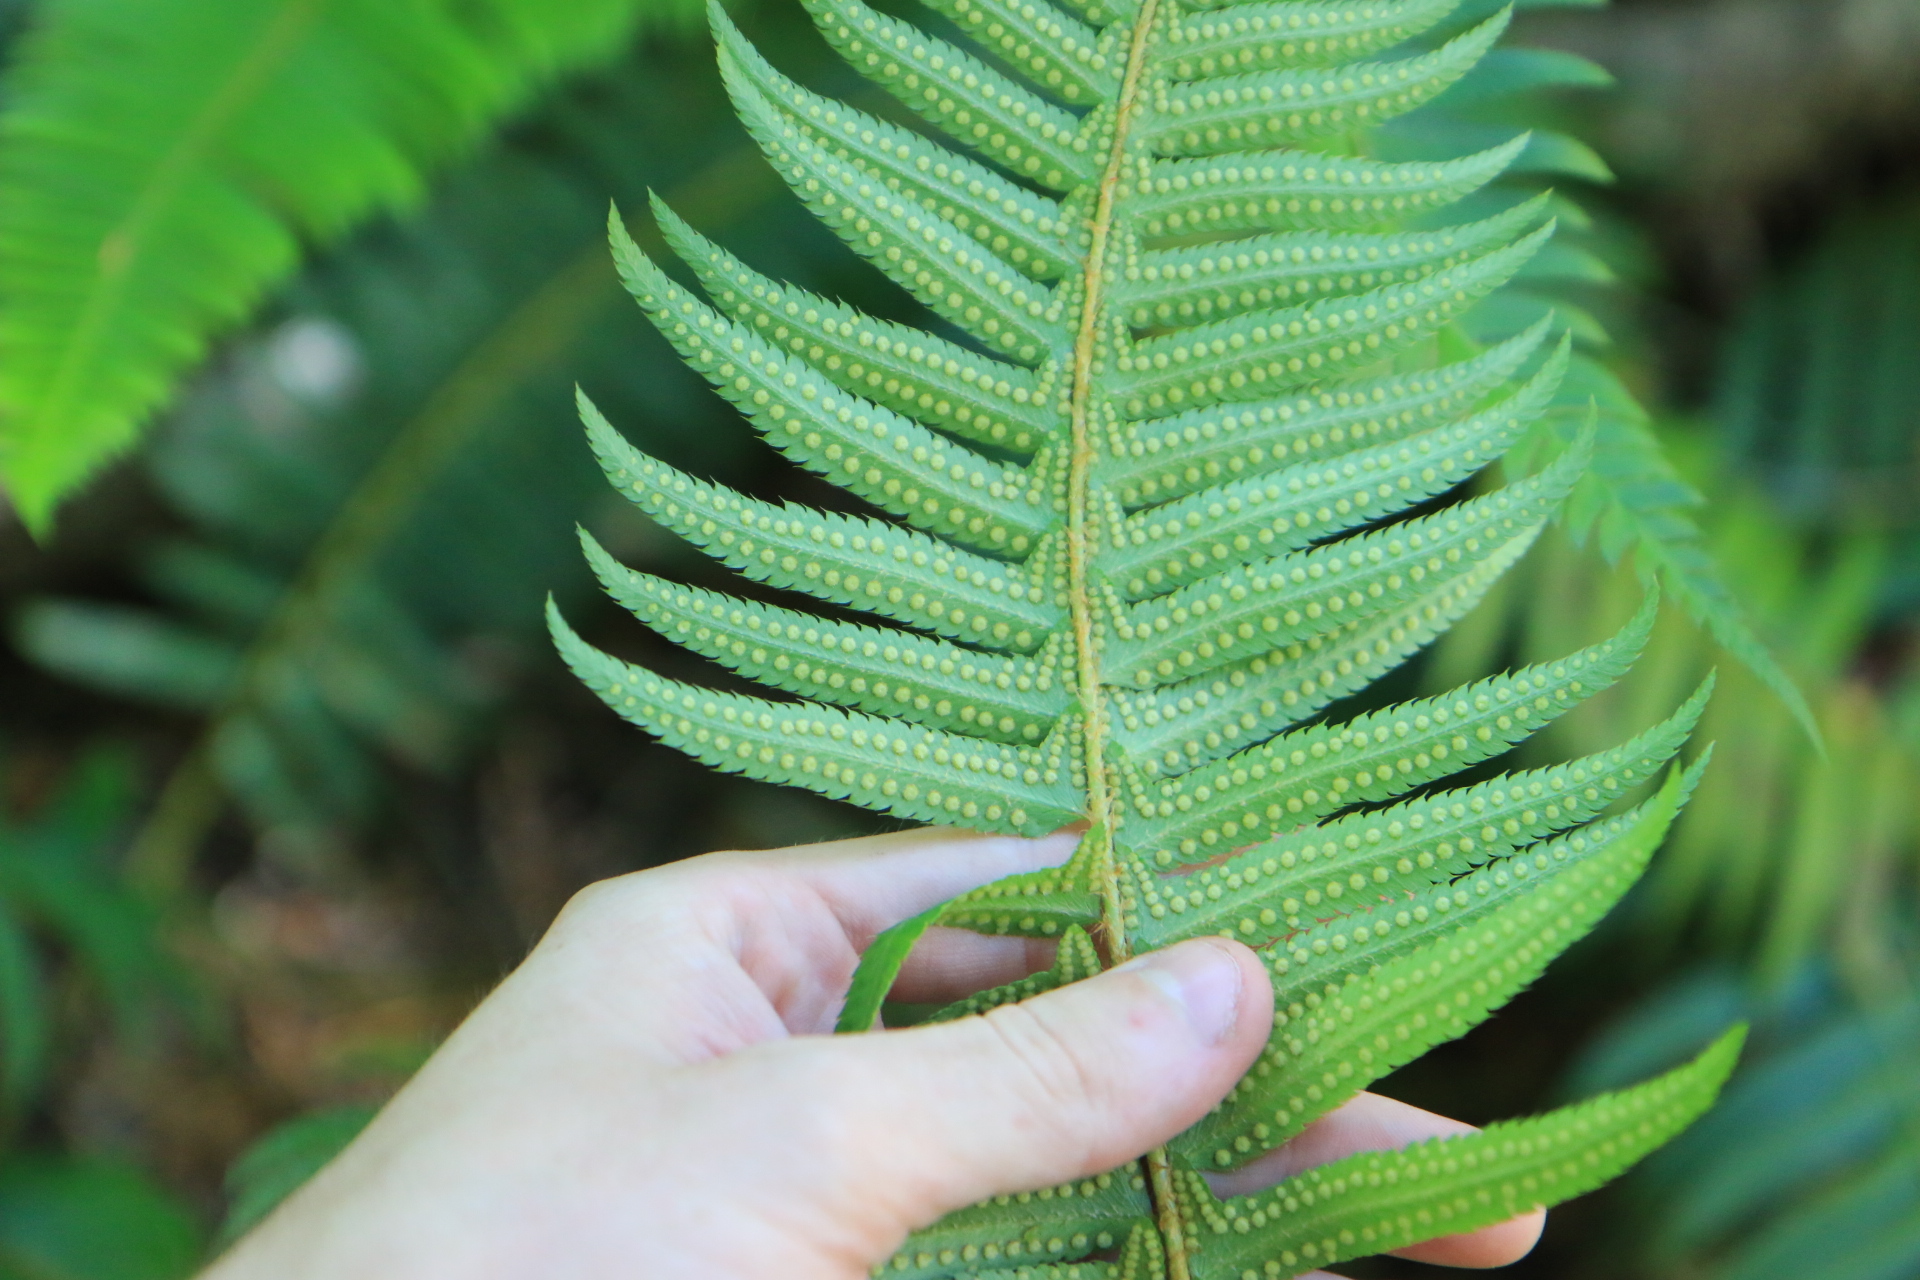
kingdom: Plantae
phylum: Tracheophyta
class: Polypodiopsida
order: Polypodiales
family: Dryopteridaceae
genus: Polystichum
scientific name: Polystichum munitum
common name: Western sword-fern
